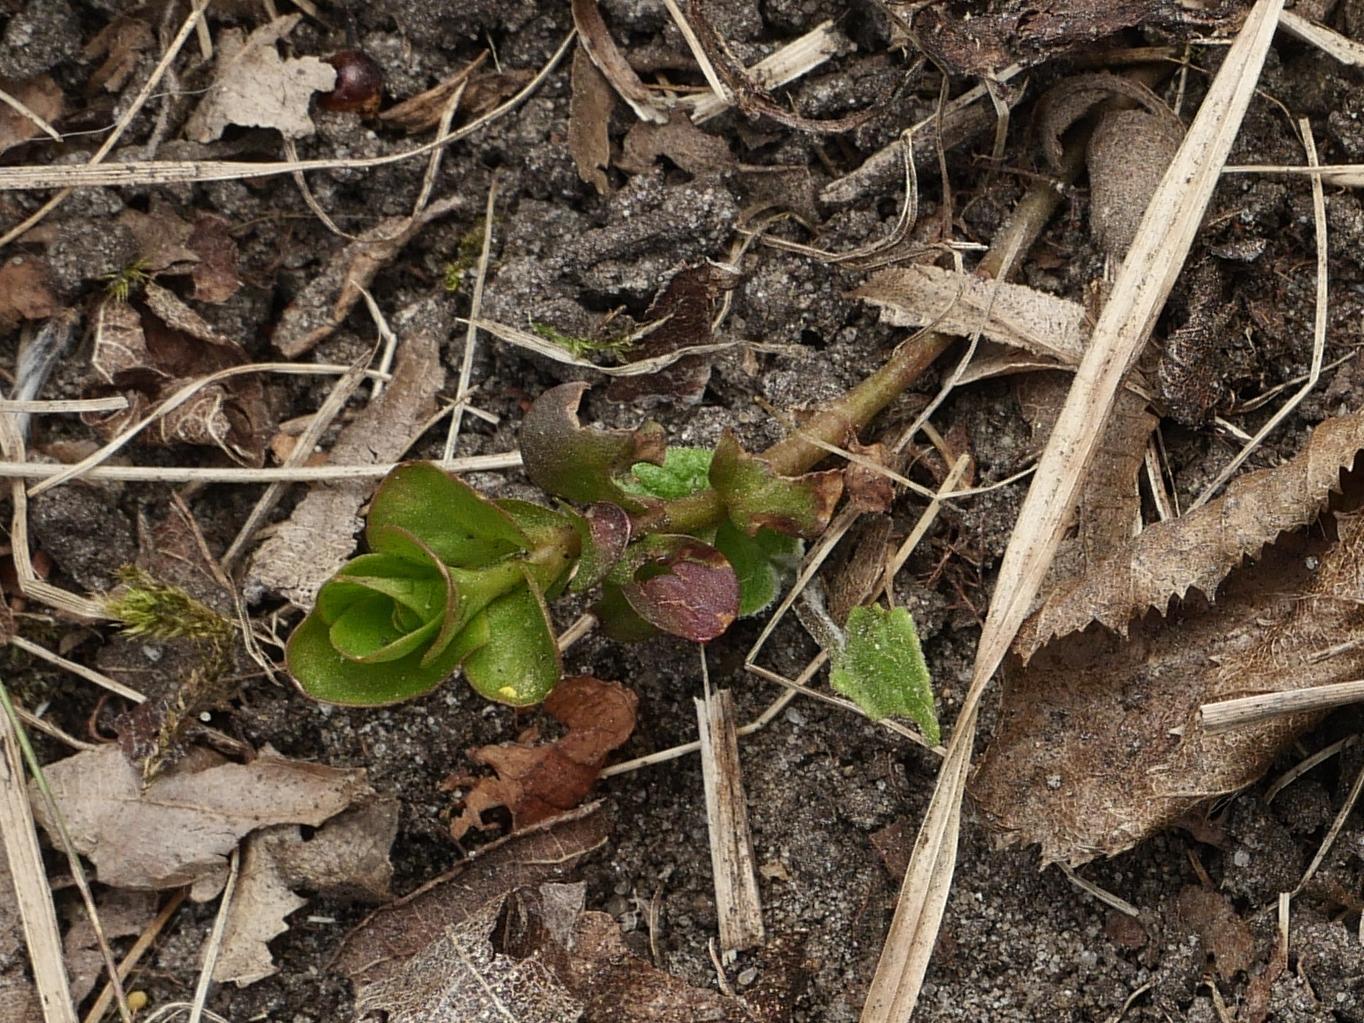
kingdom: Plantae
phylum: Tracheophyta
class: Magnoliopsida
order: Ericales
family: Primulaceae
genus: Lysimachia
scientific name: Lysimachia nummularia
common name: Moneywort
